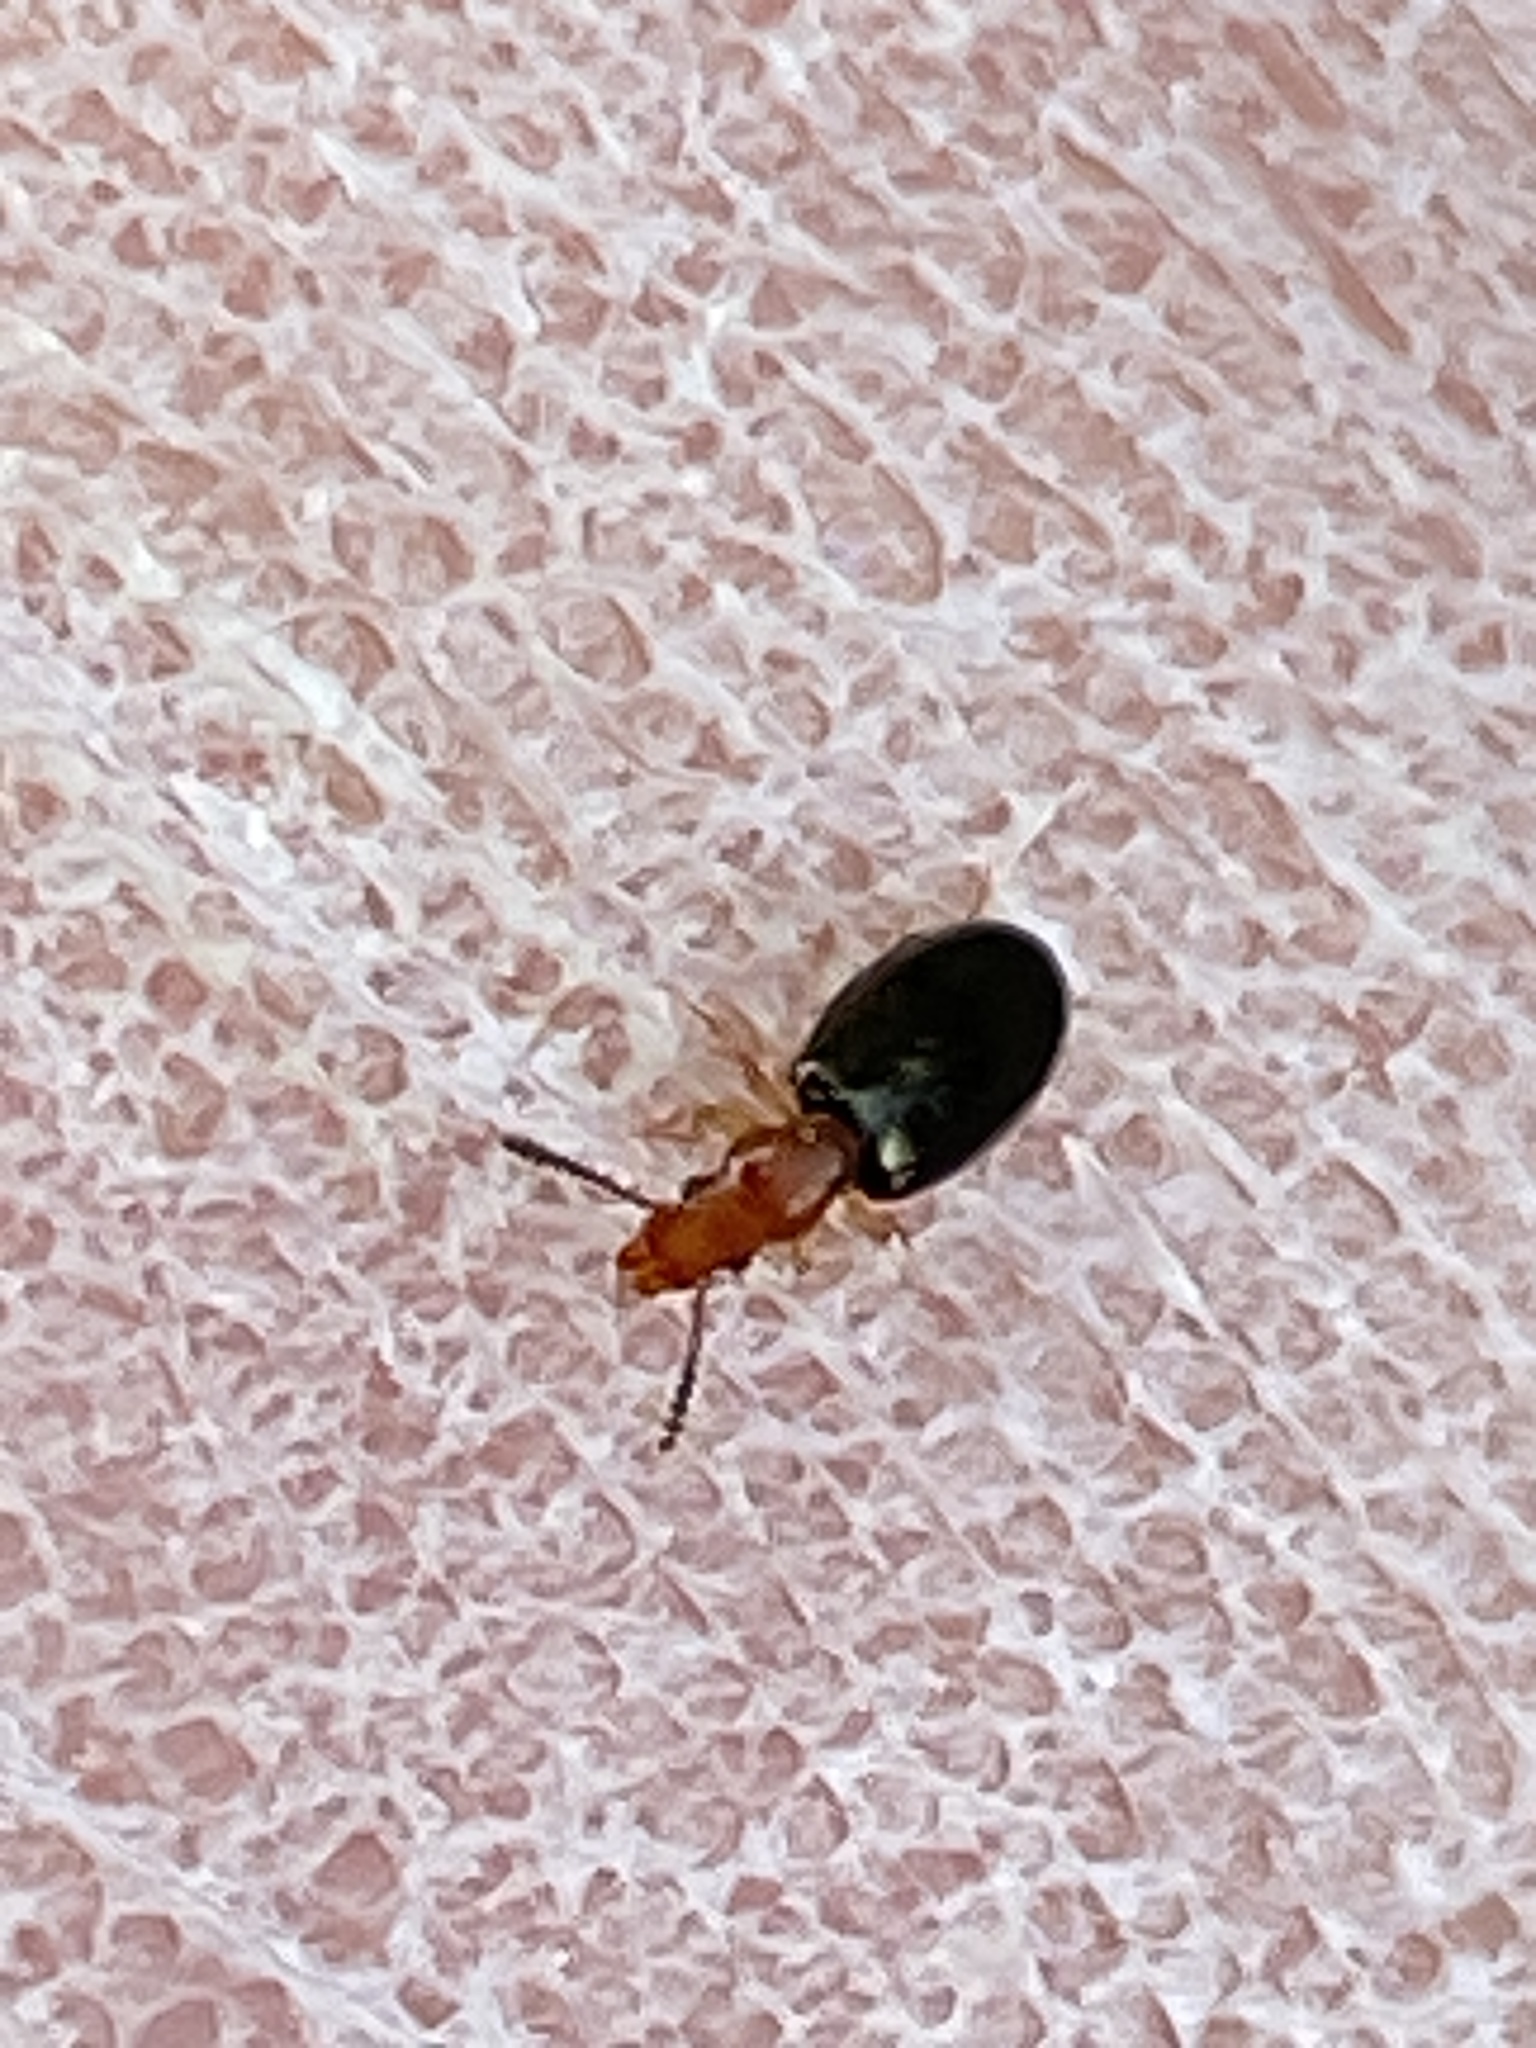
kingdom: Animalia
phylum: Arthropoda
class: Insecta
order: Coleoptera
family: Salpingidae
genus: Vincenzellus
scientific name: Vincenzellus ruficollis
